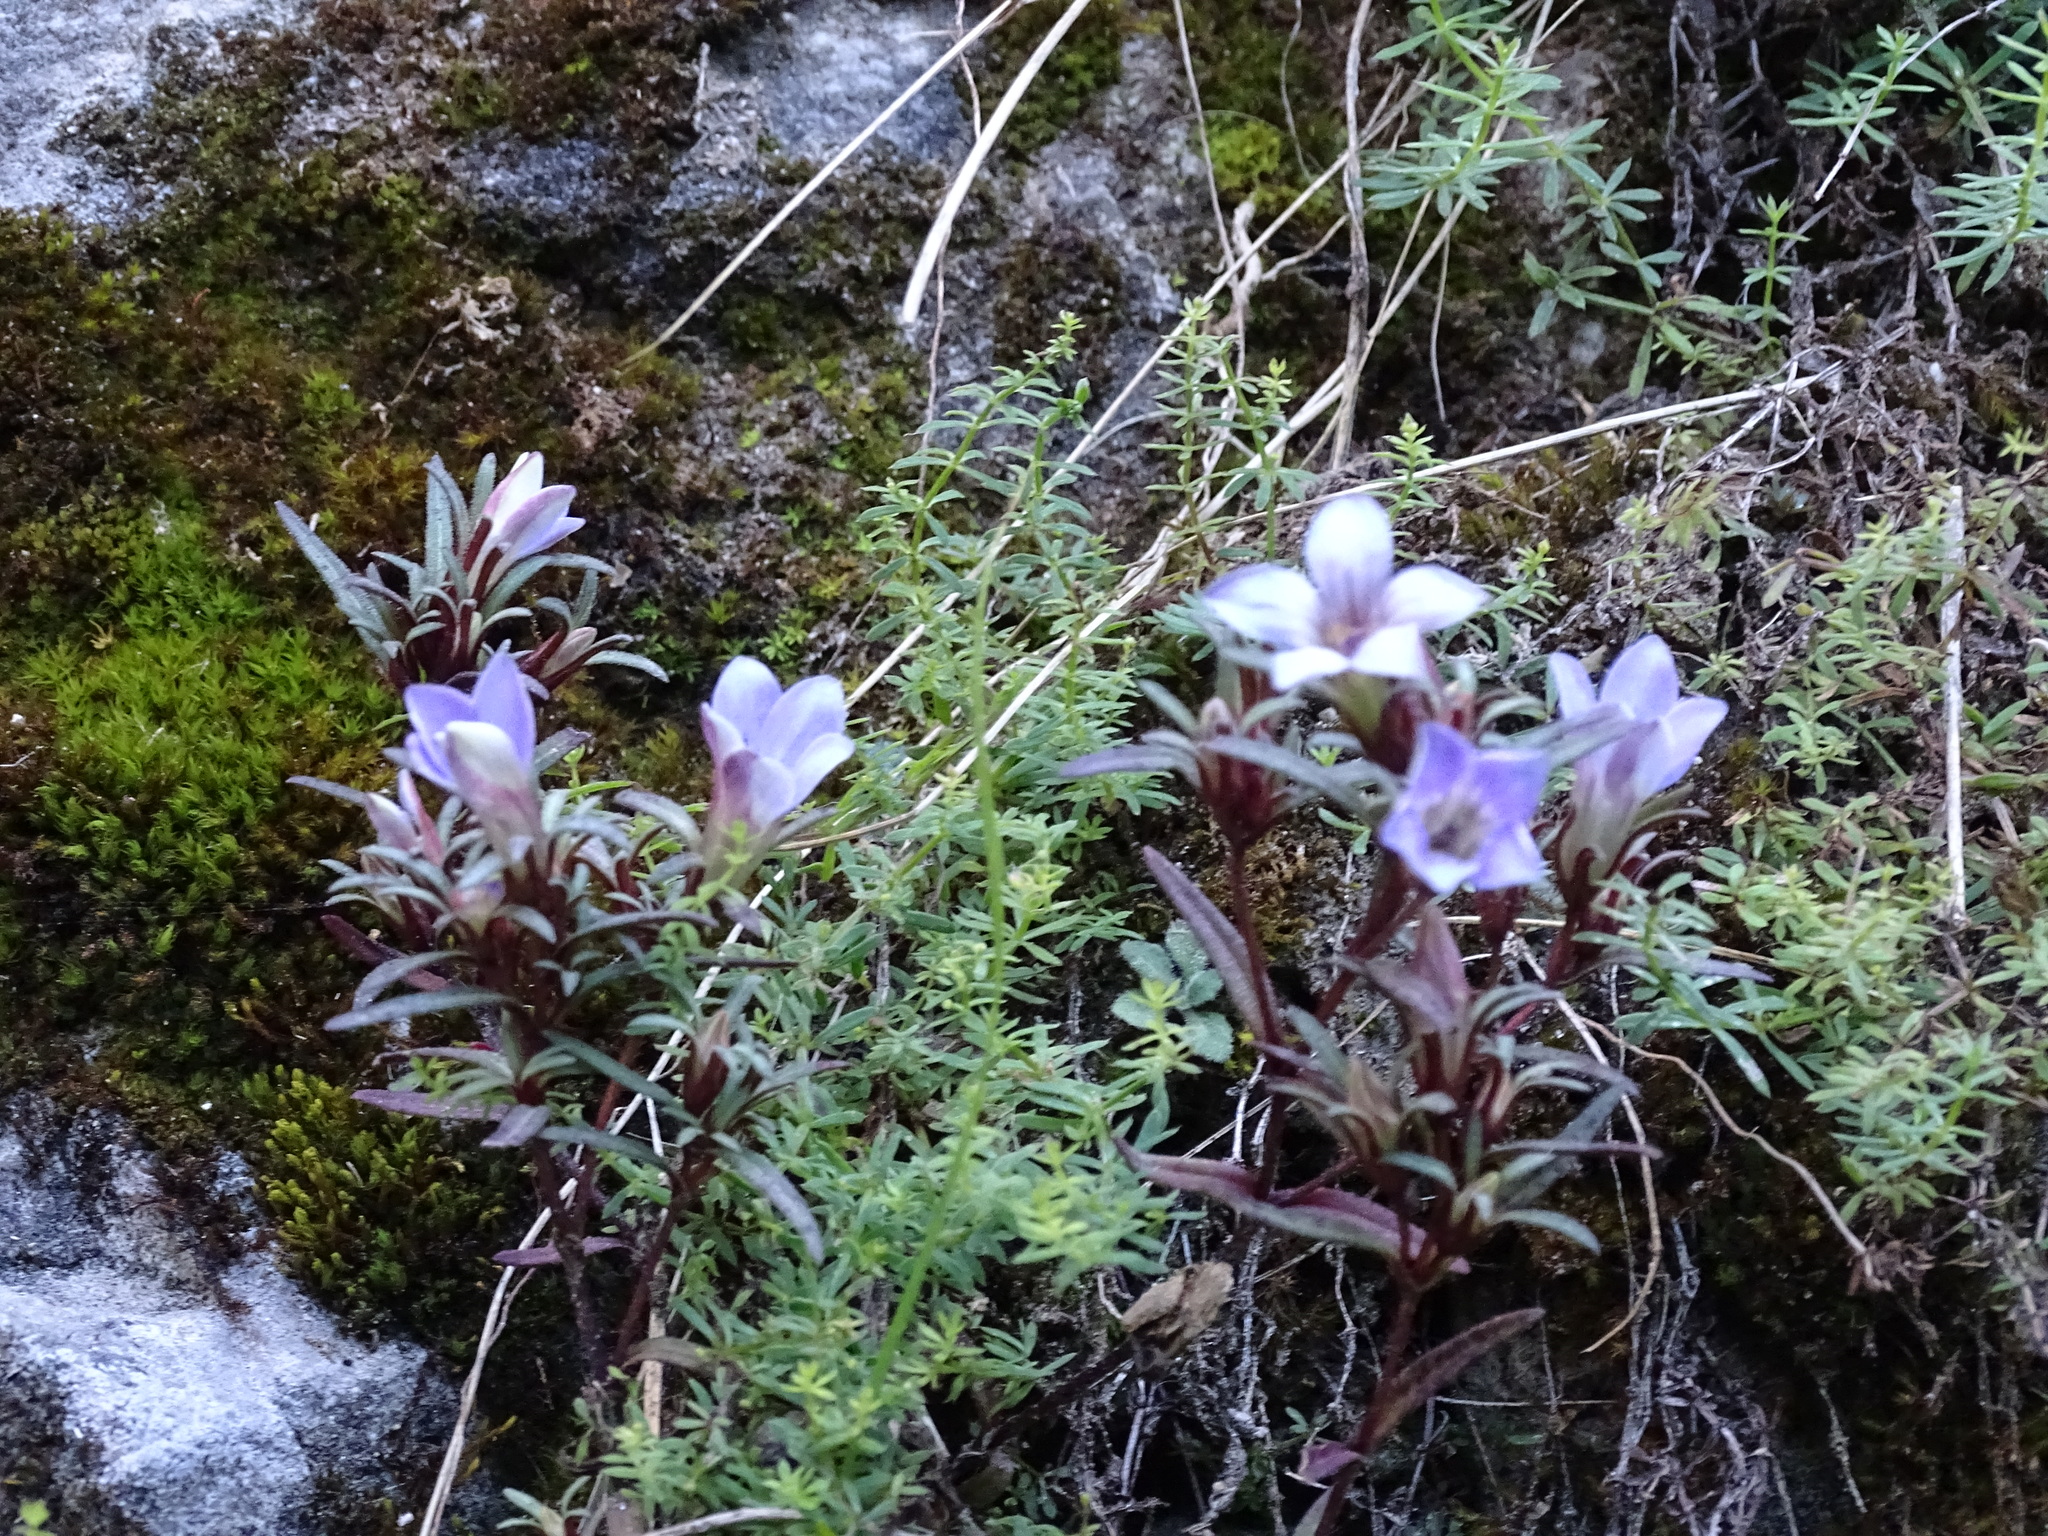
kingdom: Plantae
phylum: Tracheophyta
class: Magnoliopsida
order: Gentianales
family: Gentianaceae
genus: Gentianella
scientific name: Gentianella moorcroftiana
